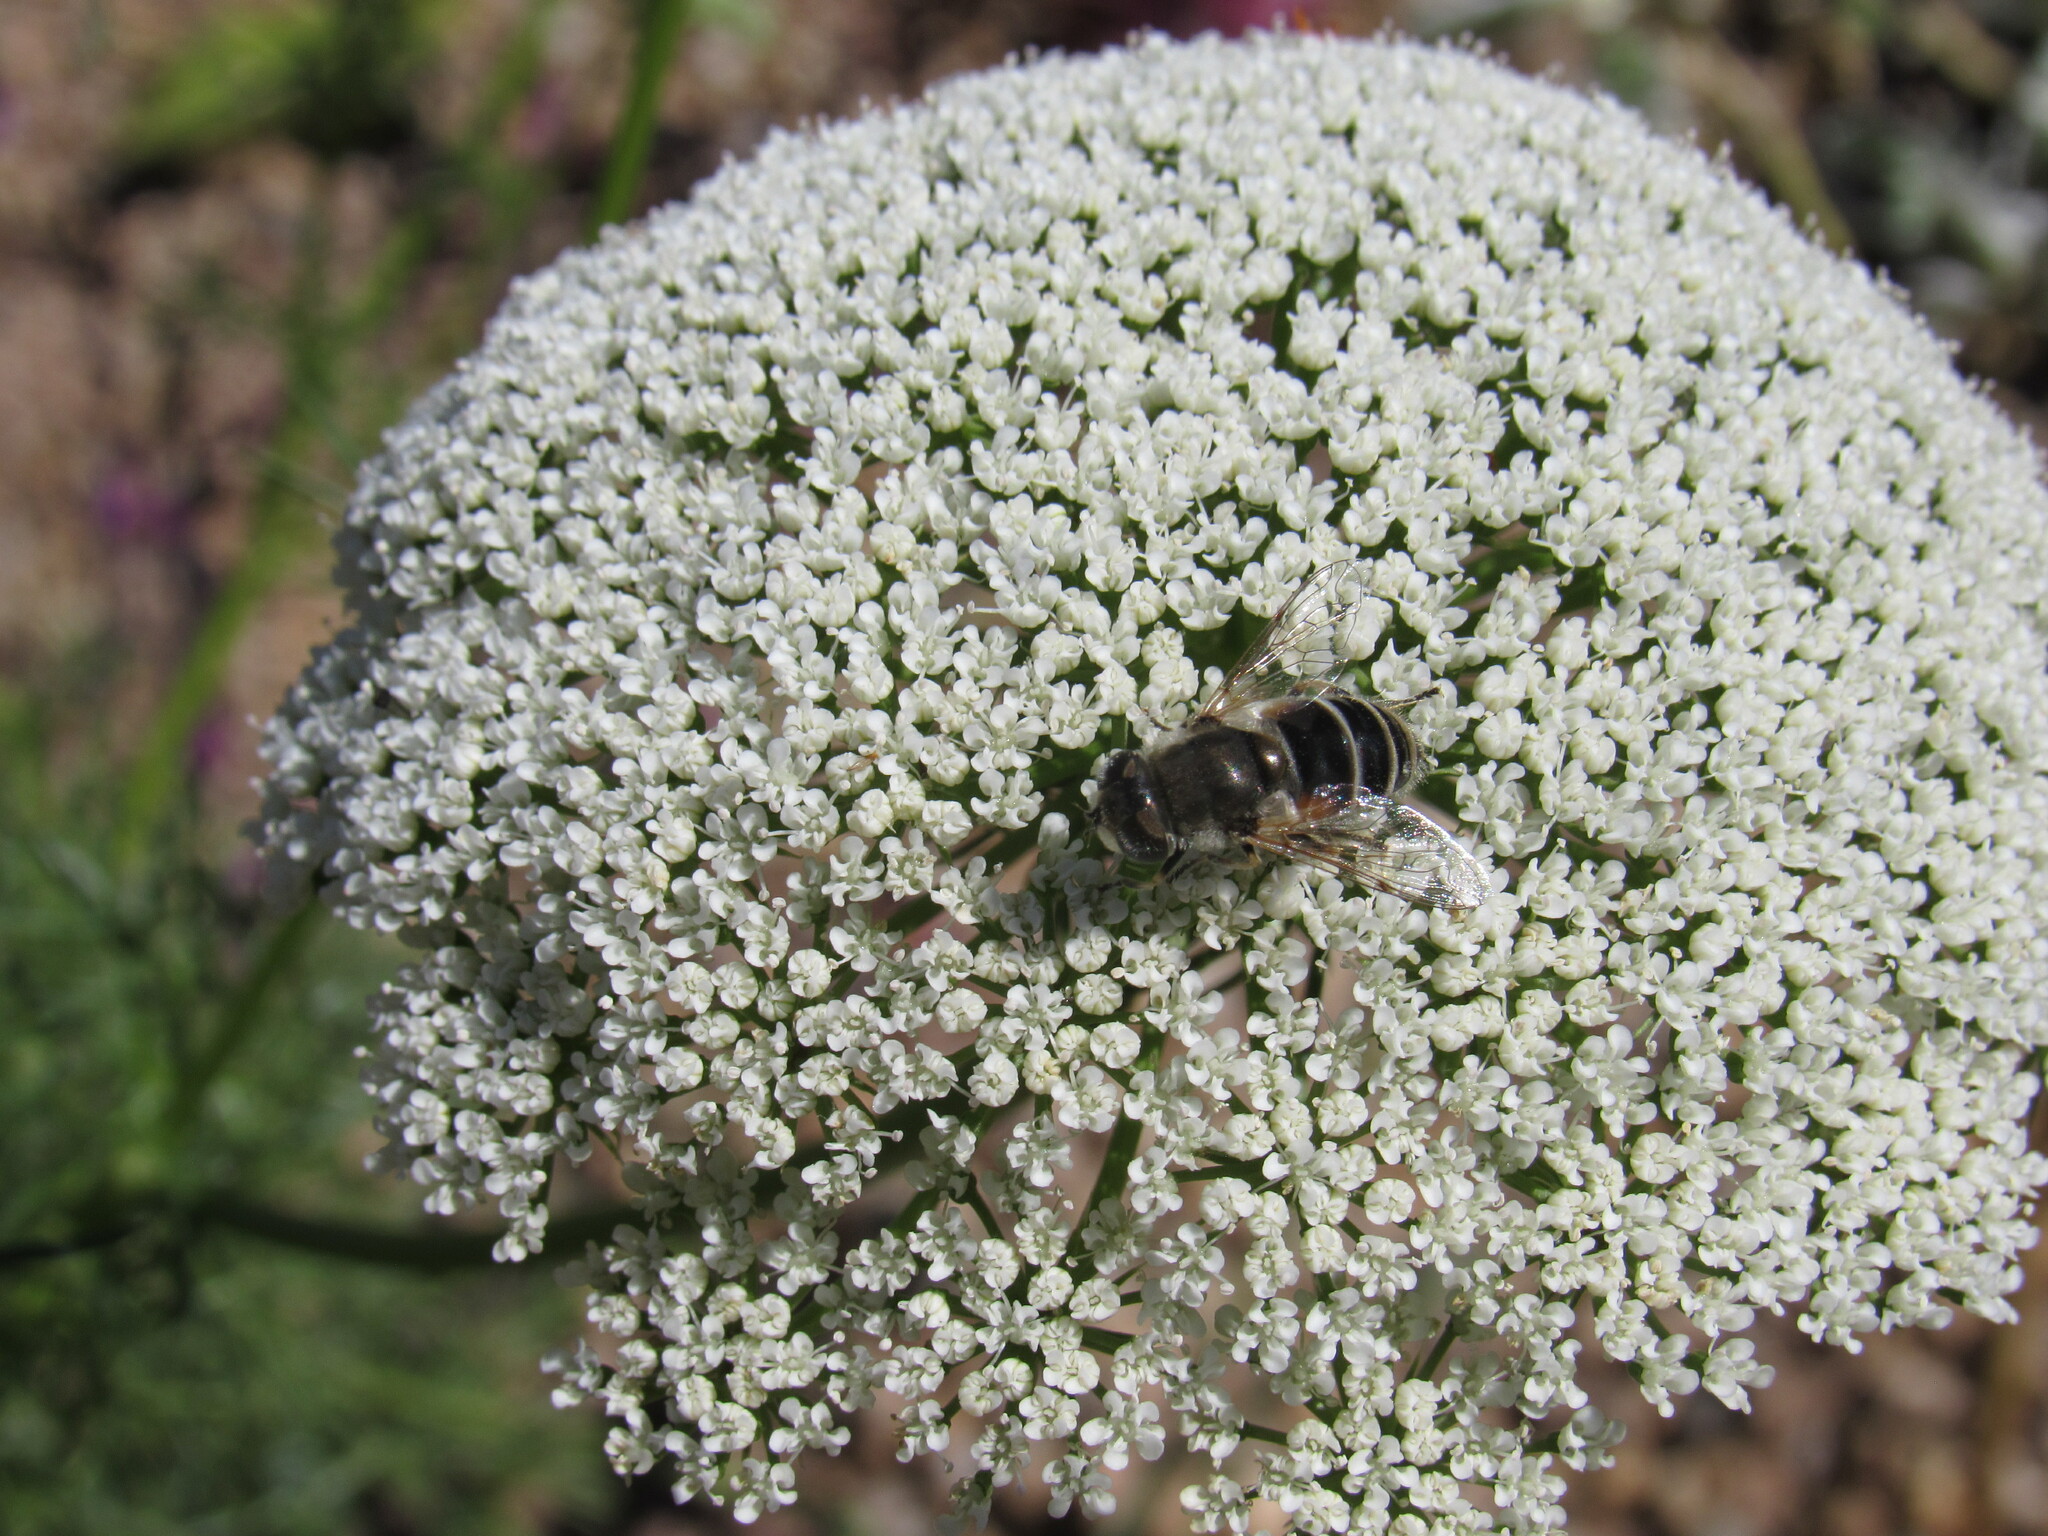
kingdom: Animalia
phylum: Arthropoda
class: Insecta
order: Diptera
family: Syrphidae
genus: Eristalis
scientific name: Eristalis arbustorum
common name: Hover fly
